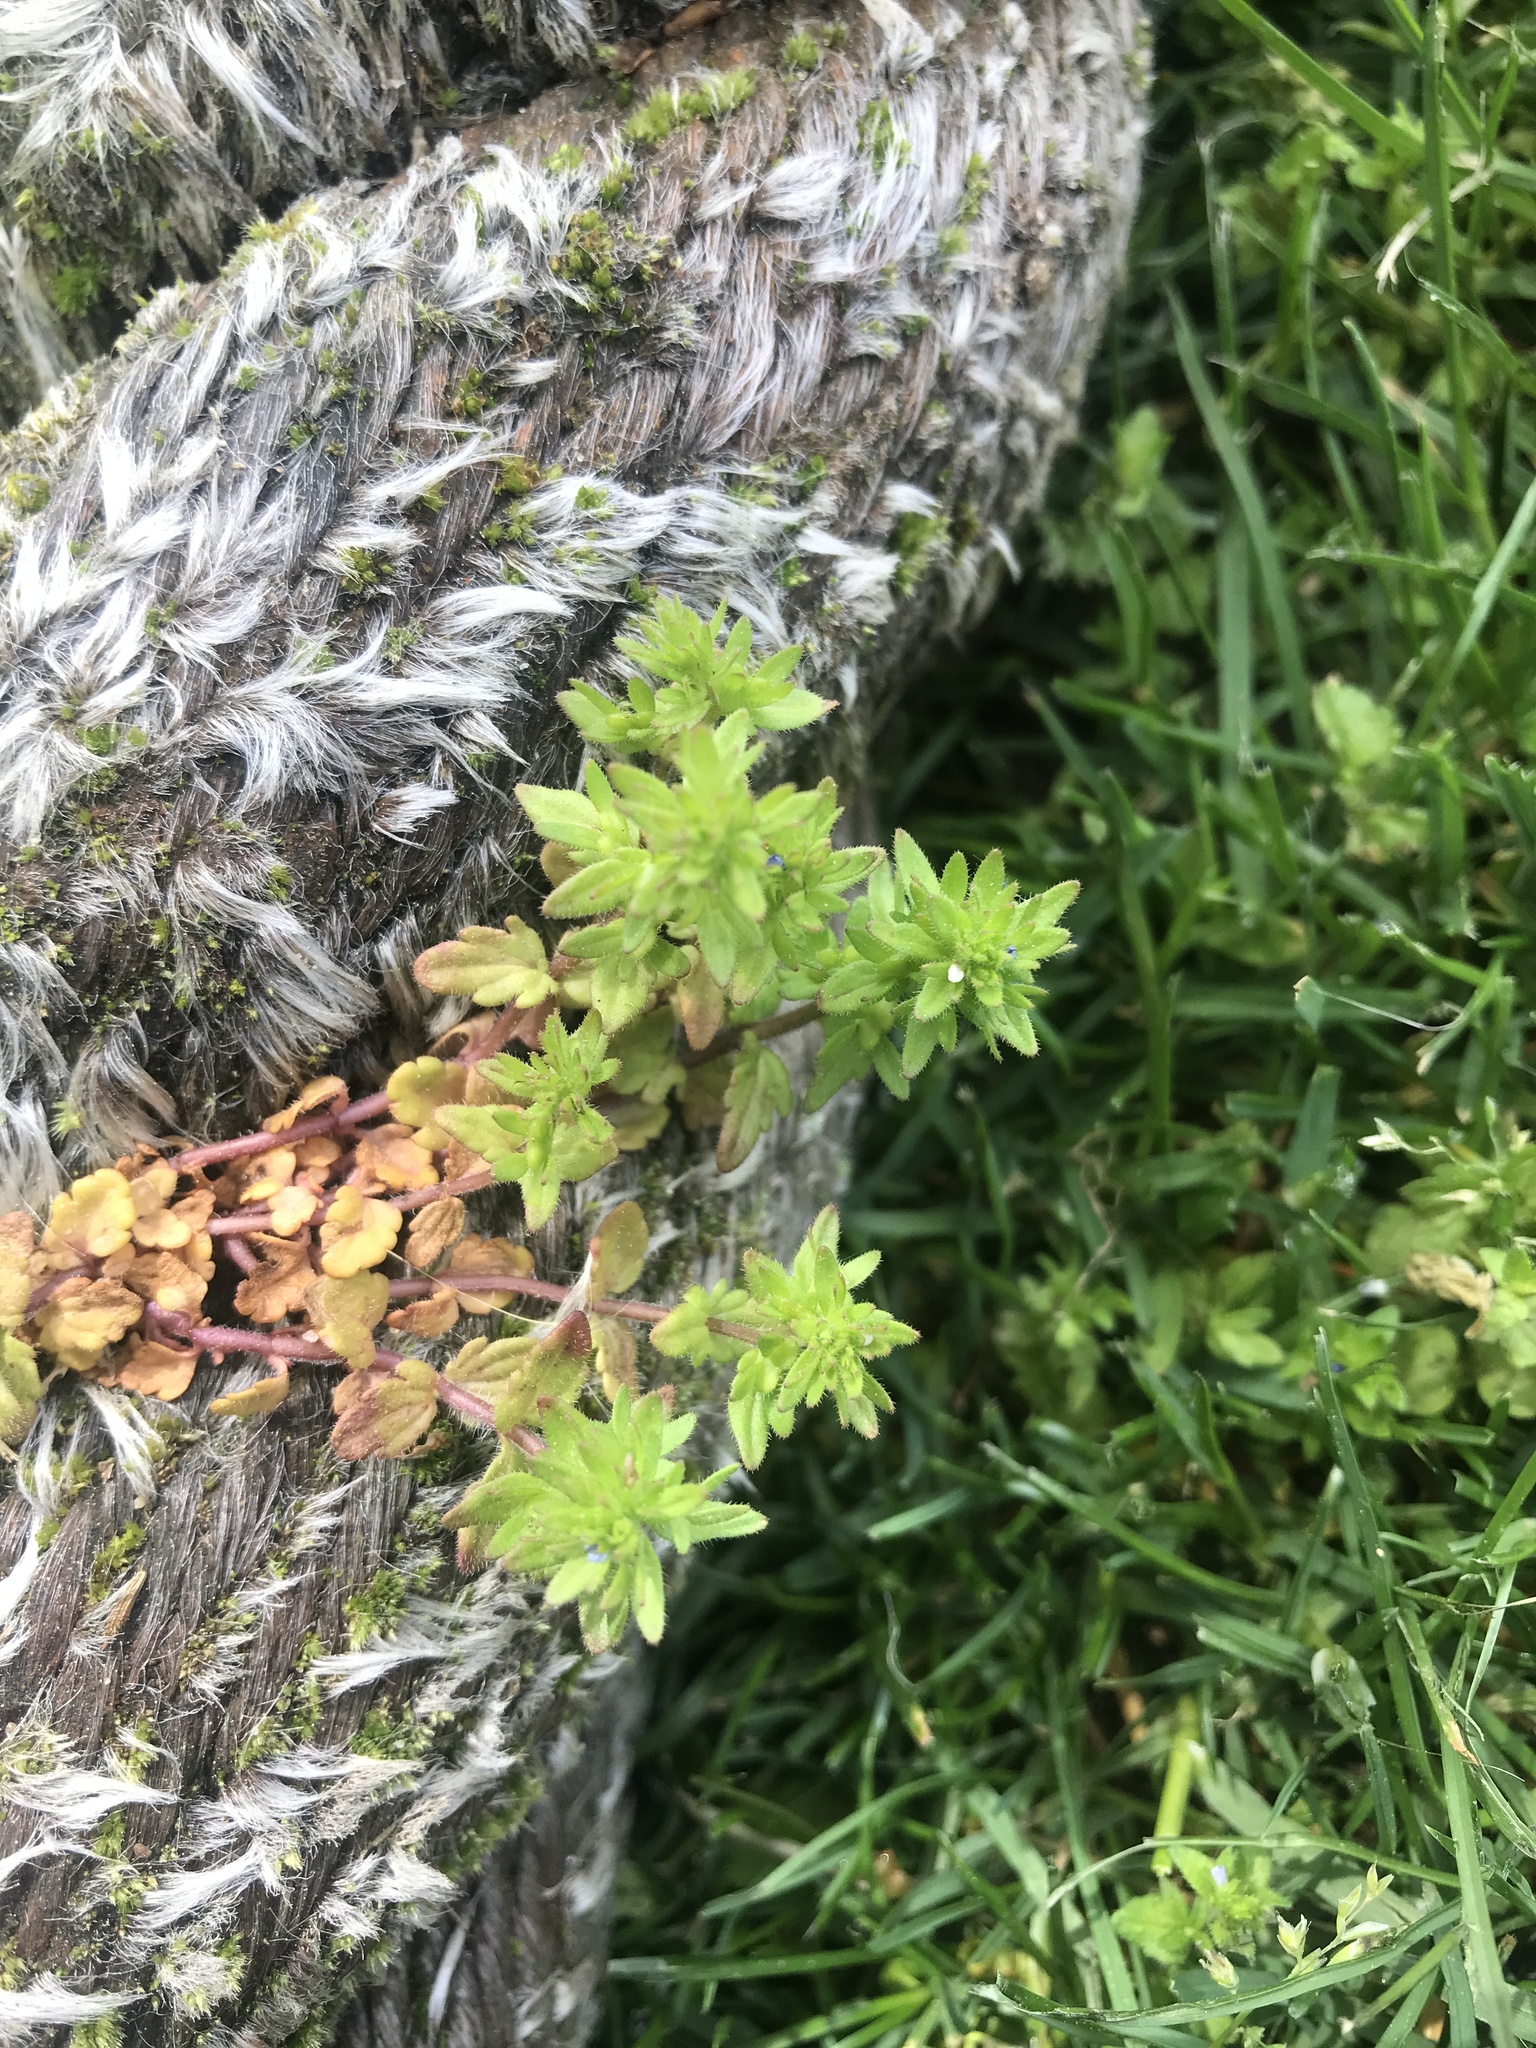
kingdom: Plantae
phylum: Tracheophyta
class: Magnoliopsida
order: Lamiales
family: Plantaginaceae
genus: Veronica
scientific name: Veronica arvensis
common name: Corn speedwell
